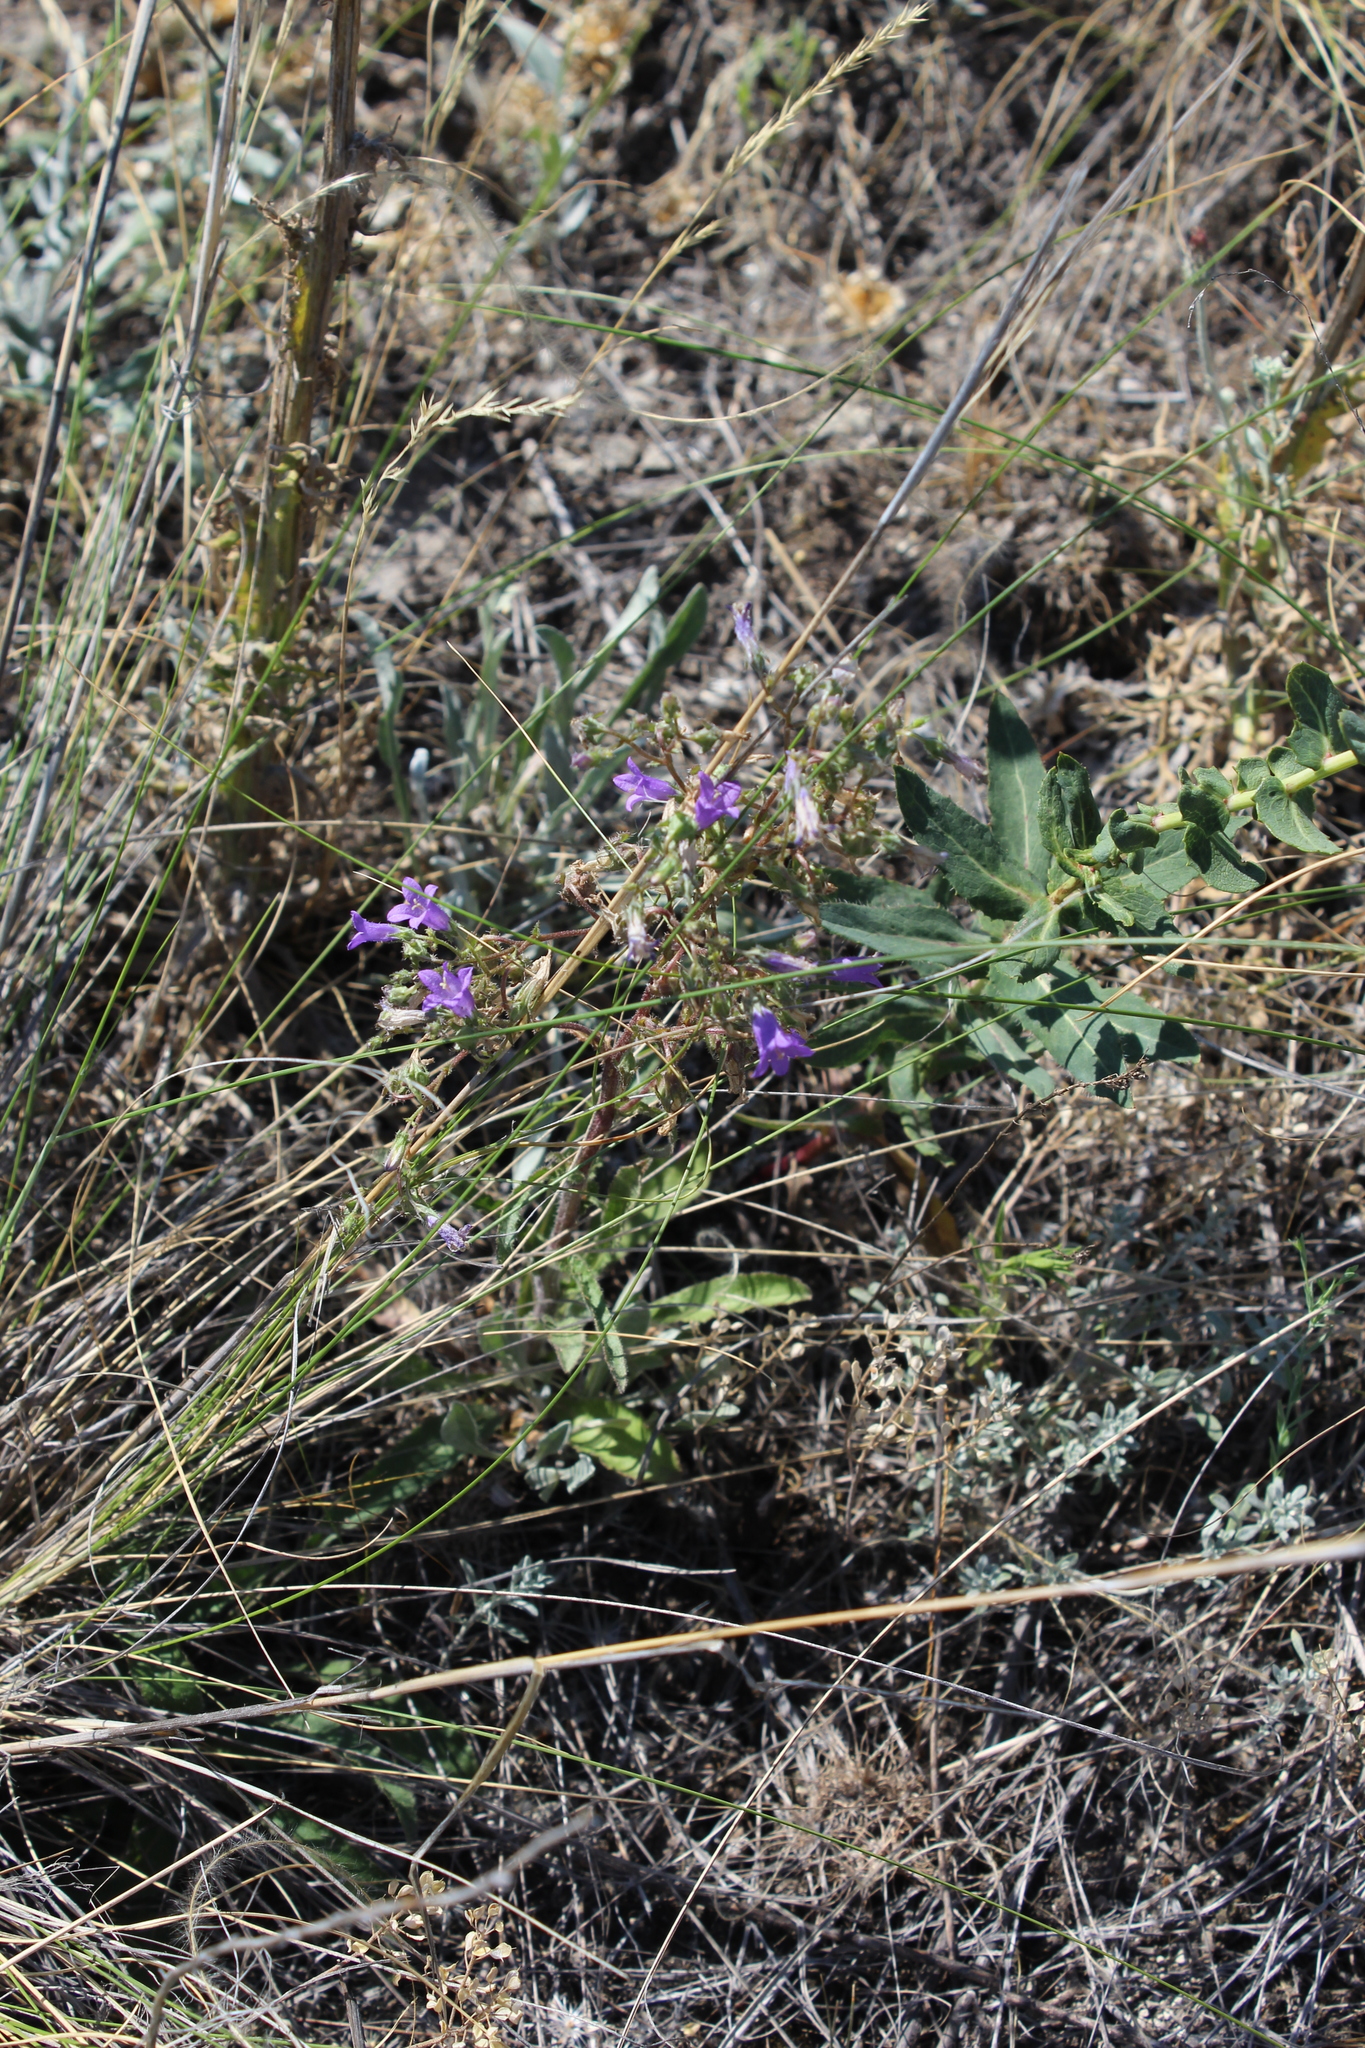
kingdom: Plantae
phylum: Tracheophyta
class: Magnoliopsida
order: Asterales
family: Campanulaceae
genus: Campanula
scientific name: Campanula sibirica
